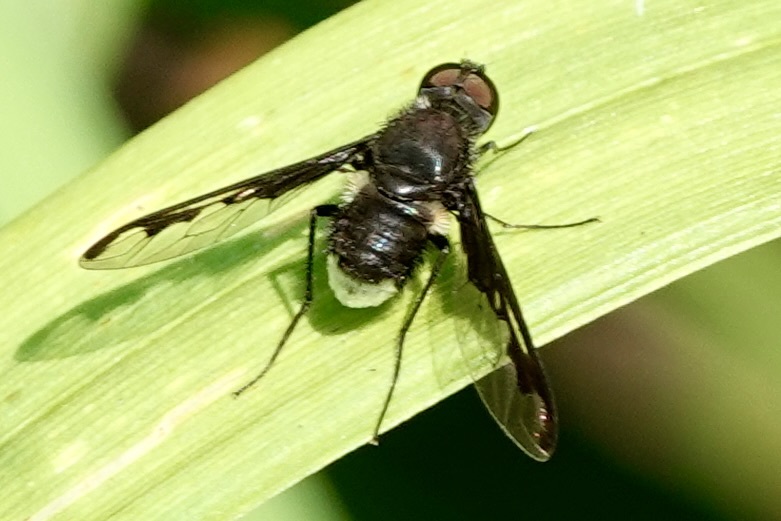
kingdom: Animalia
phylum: Arthropoda
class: Insecta
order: Diptera
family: Bombyliidae
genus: Anthrax
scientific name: Anthrax argyropygus
